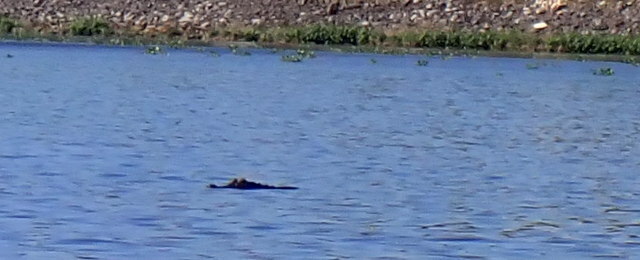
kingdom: Animalia
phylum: Chordata
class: Crocodylia
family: Alligatoridae
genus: Alligator
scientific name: Alligator mississippiensis
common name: American alligator
